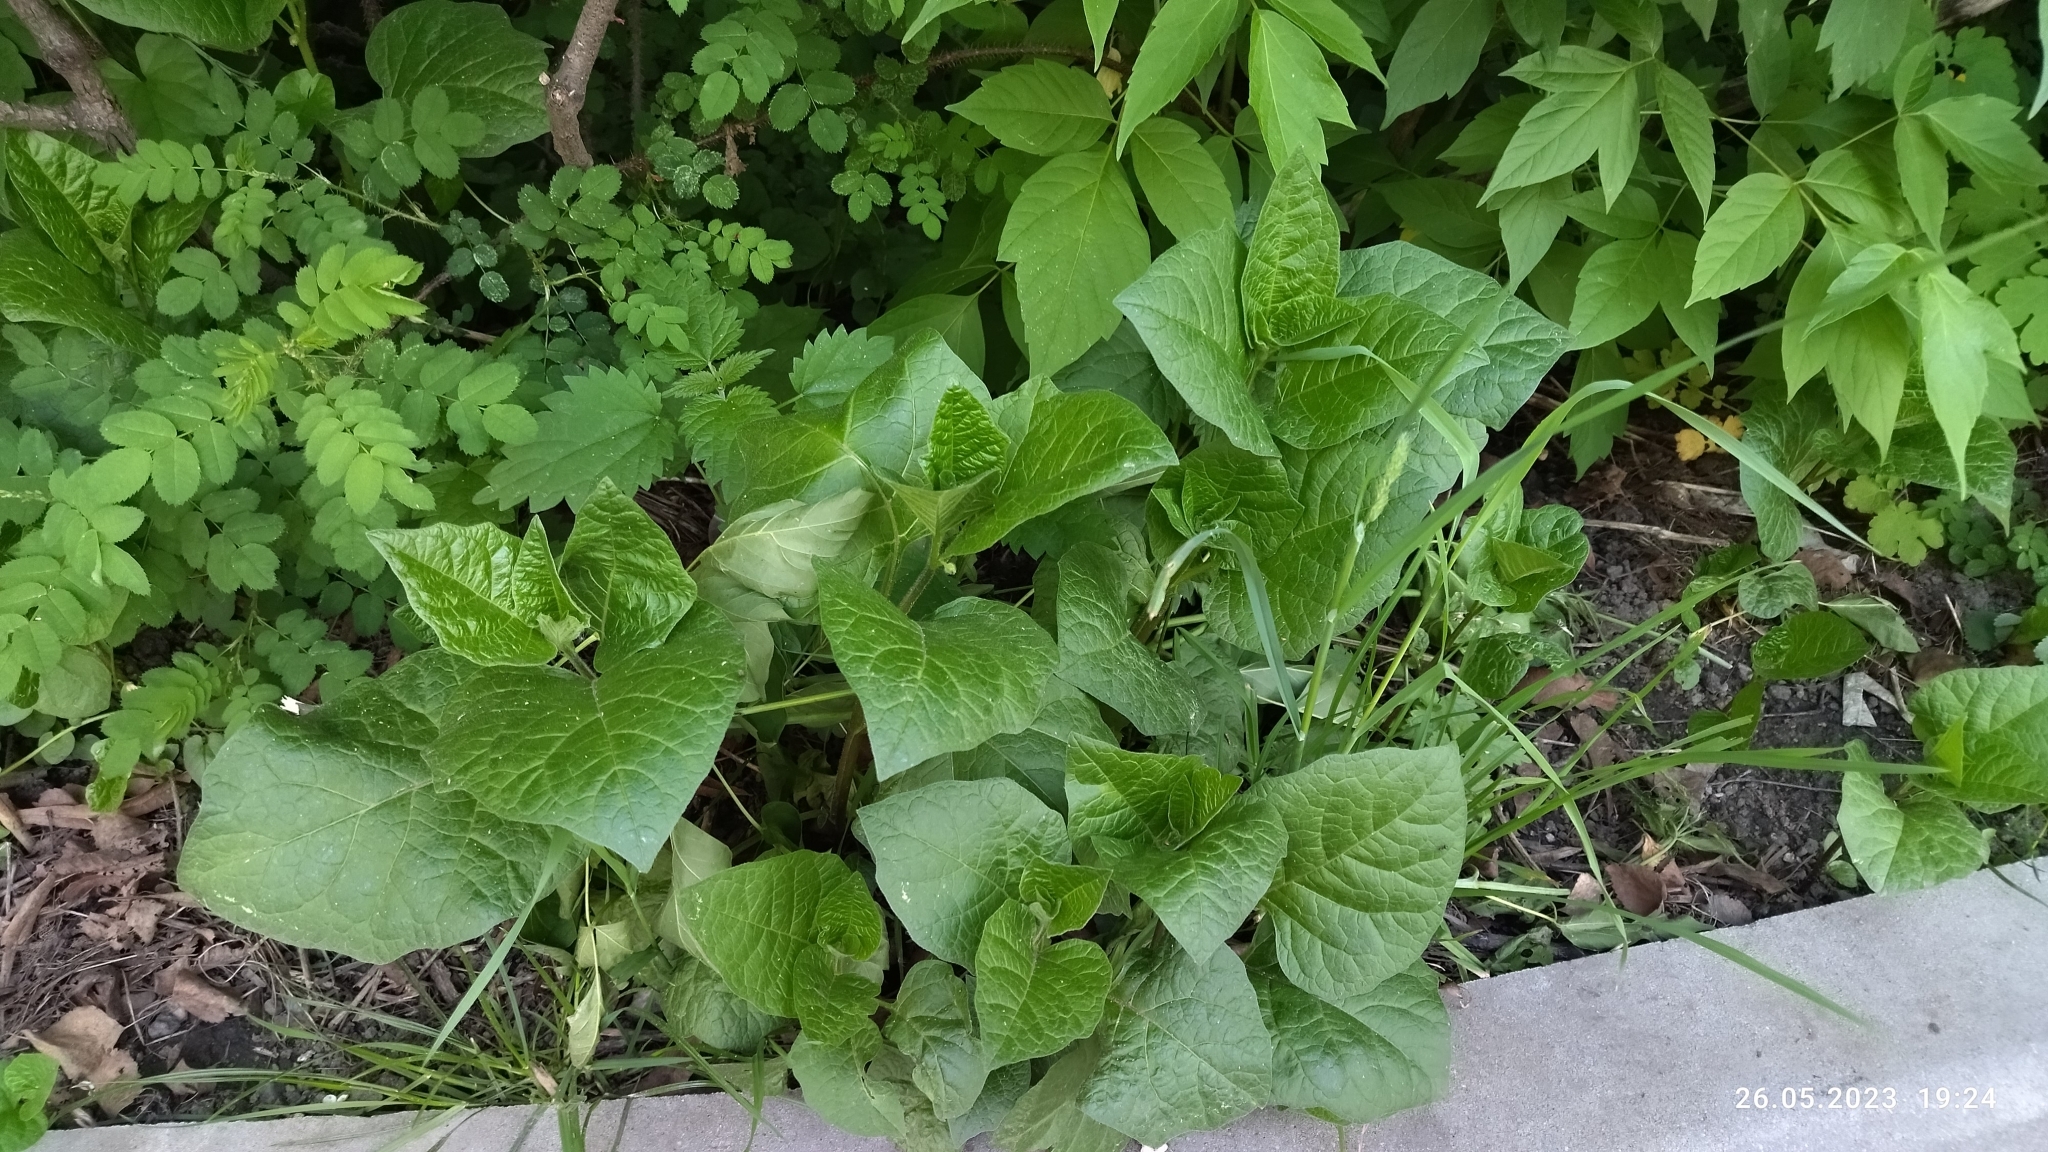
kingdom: Plantae
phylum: Tracheophyta
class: Magnoliopsida
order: Solanales
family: Solanaceae
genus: Alkekengi
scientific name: Alkekengi officinarum
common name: Japanese-lantern
